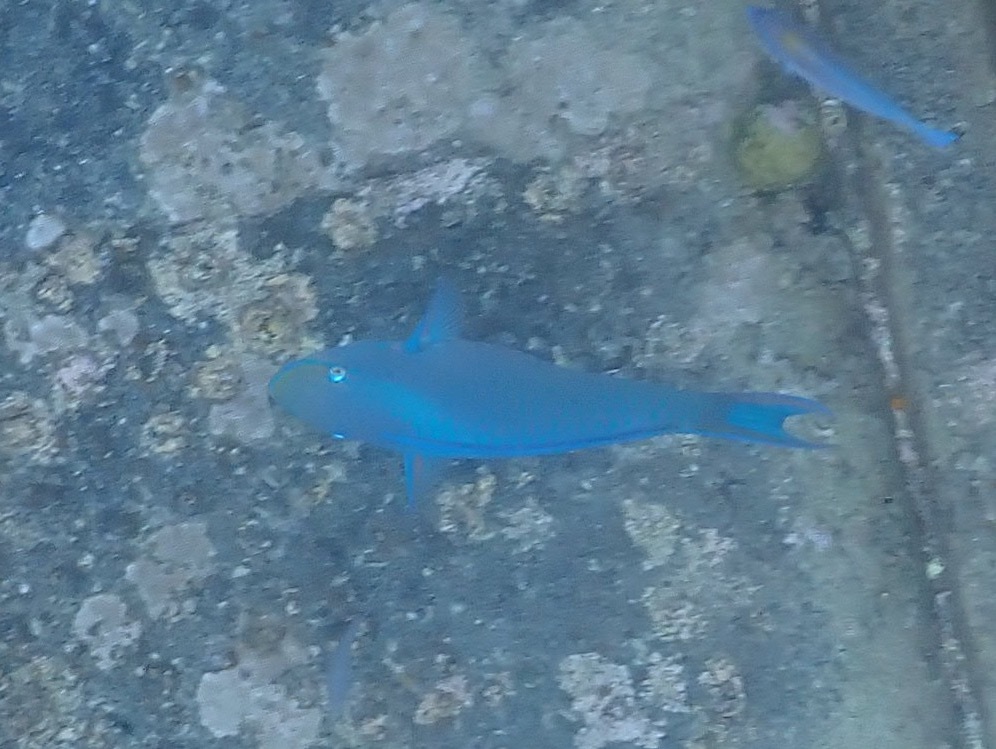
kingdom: Animalia
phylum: Chordata
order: Perciformes
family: Scaridae
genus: Scarus
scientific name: Scarus vetula
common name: Queen parrotfish
